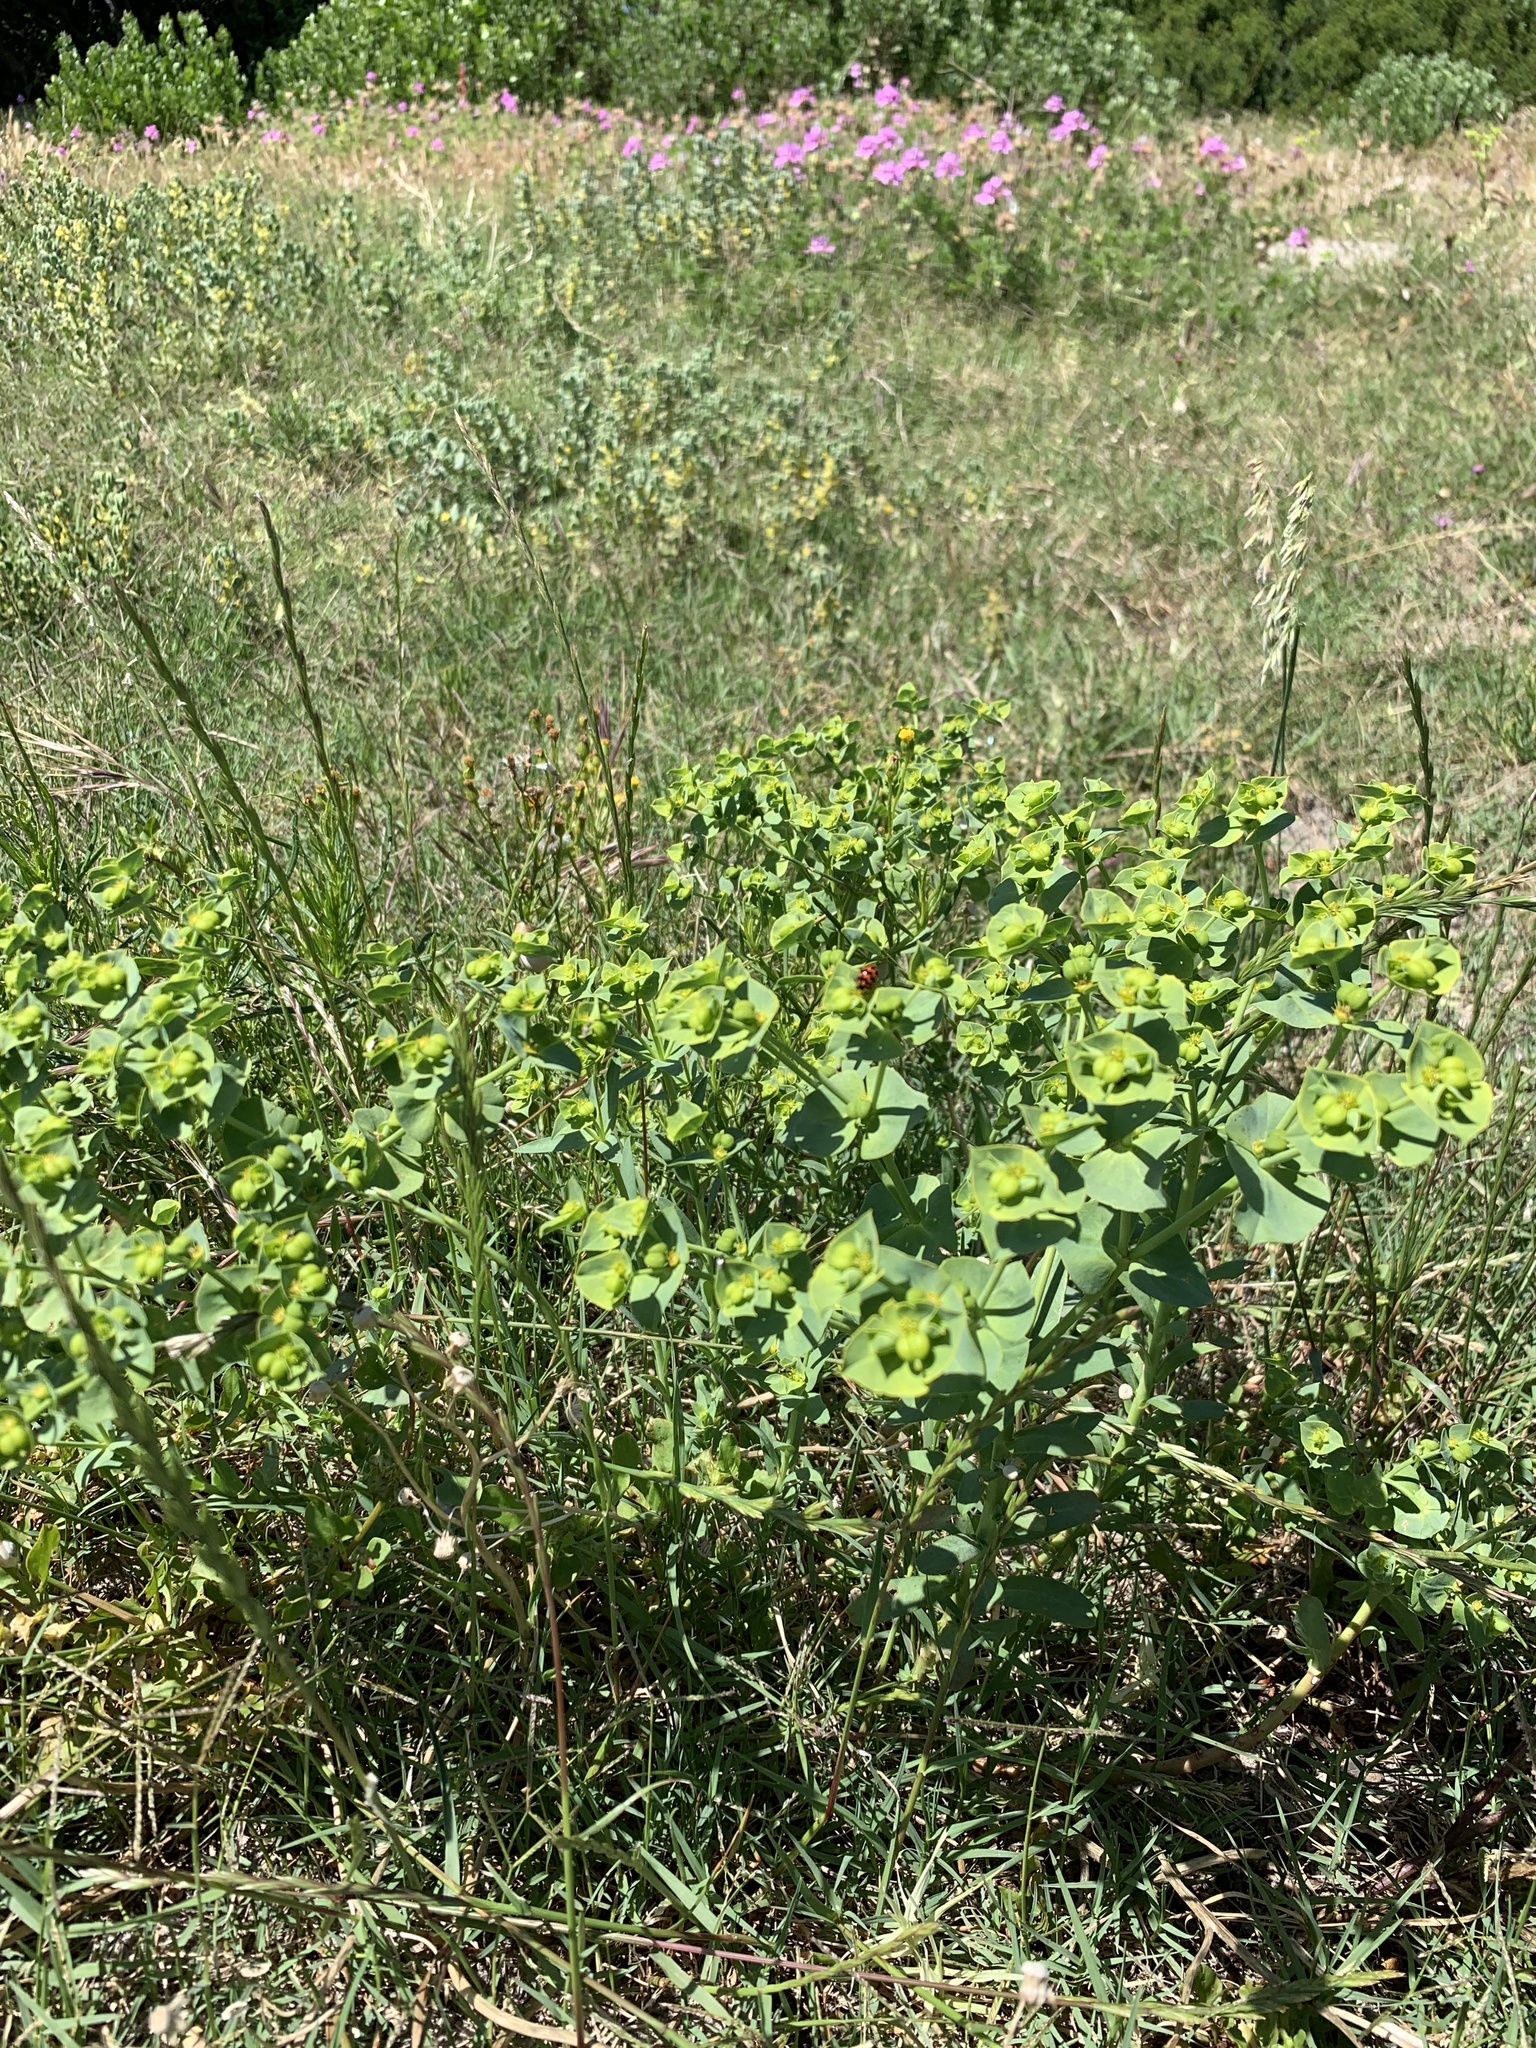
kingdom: Plantae
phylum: Tracheophyta
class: Magnoliopsida
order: Malpighiales
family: Euphorbiaceae
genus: Euphorbia
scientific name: Euphorbia terracina
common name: Geraldton carnation weed
